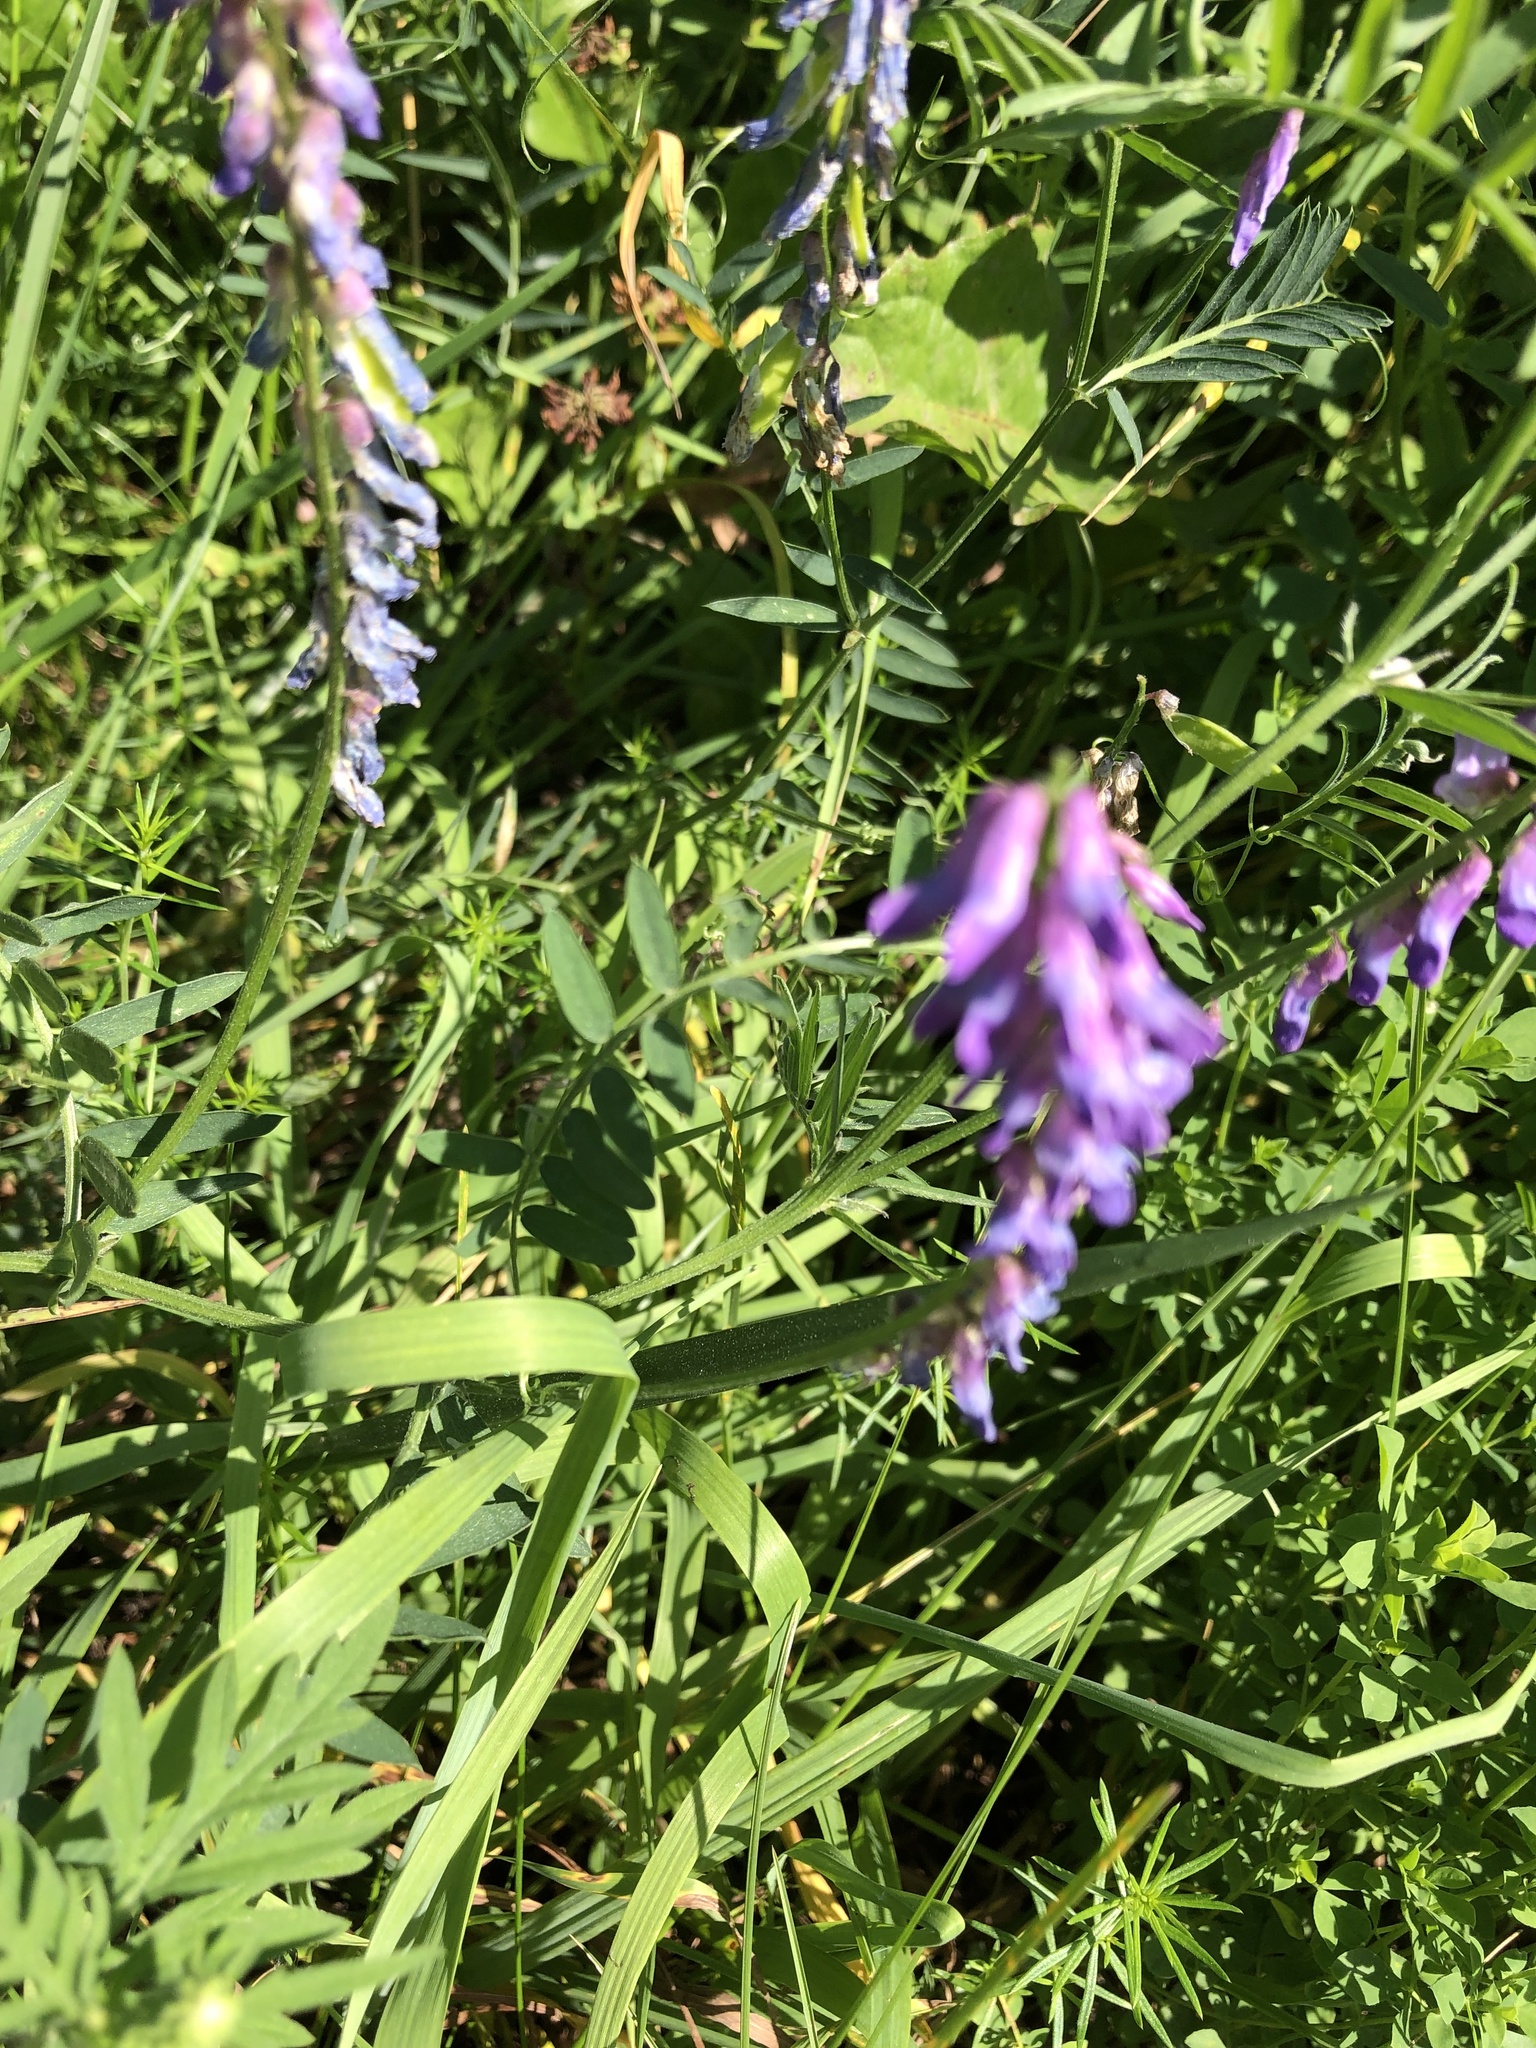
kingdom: Plantae
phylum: Tracheophyta
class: Magnoliopsida
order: Fabales
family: Fabaceae
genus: Vicia
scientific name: Vicia cracca
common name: Bird vetch
